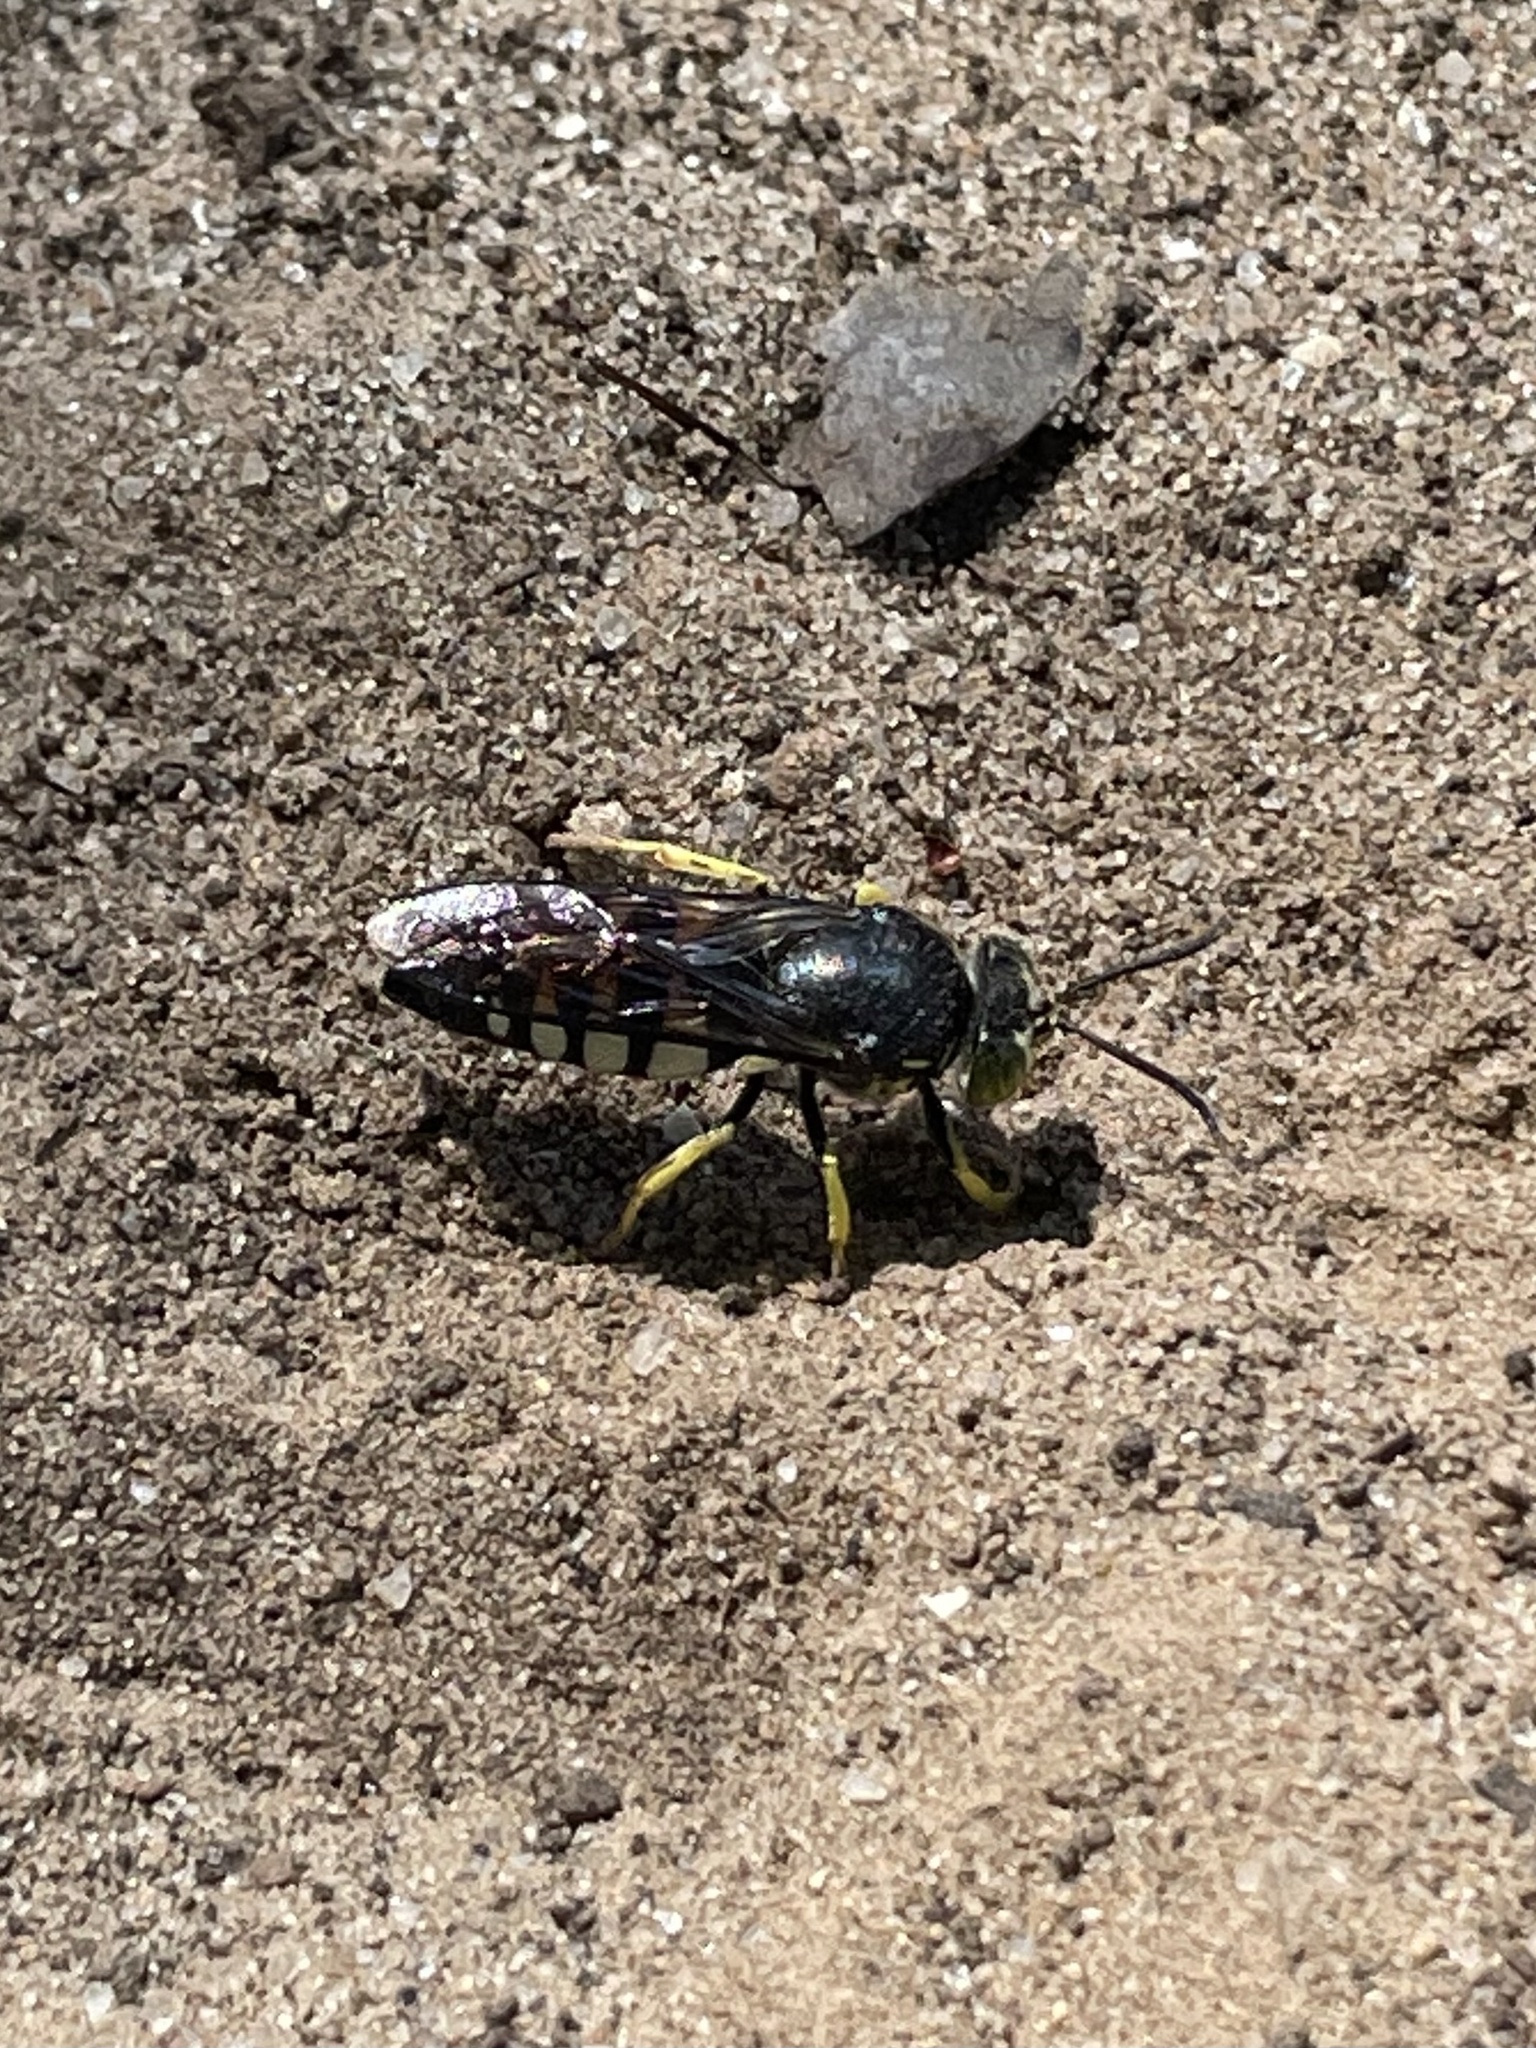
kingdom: Animalia
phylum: Arthropoda
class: Insecta
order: Hymenoptera
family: Crabronidae
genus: Bicyrtes
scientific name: Bicyrtes quadrifasciatus
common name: Four-banded stink bug hunter wasp
